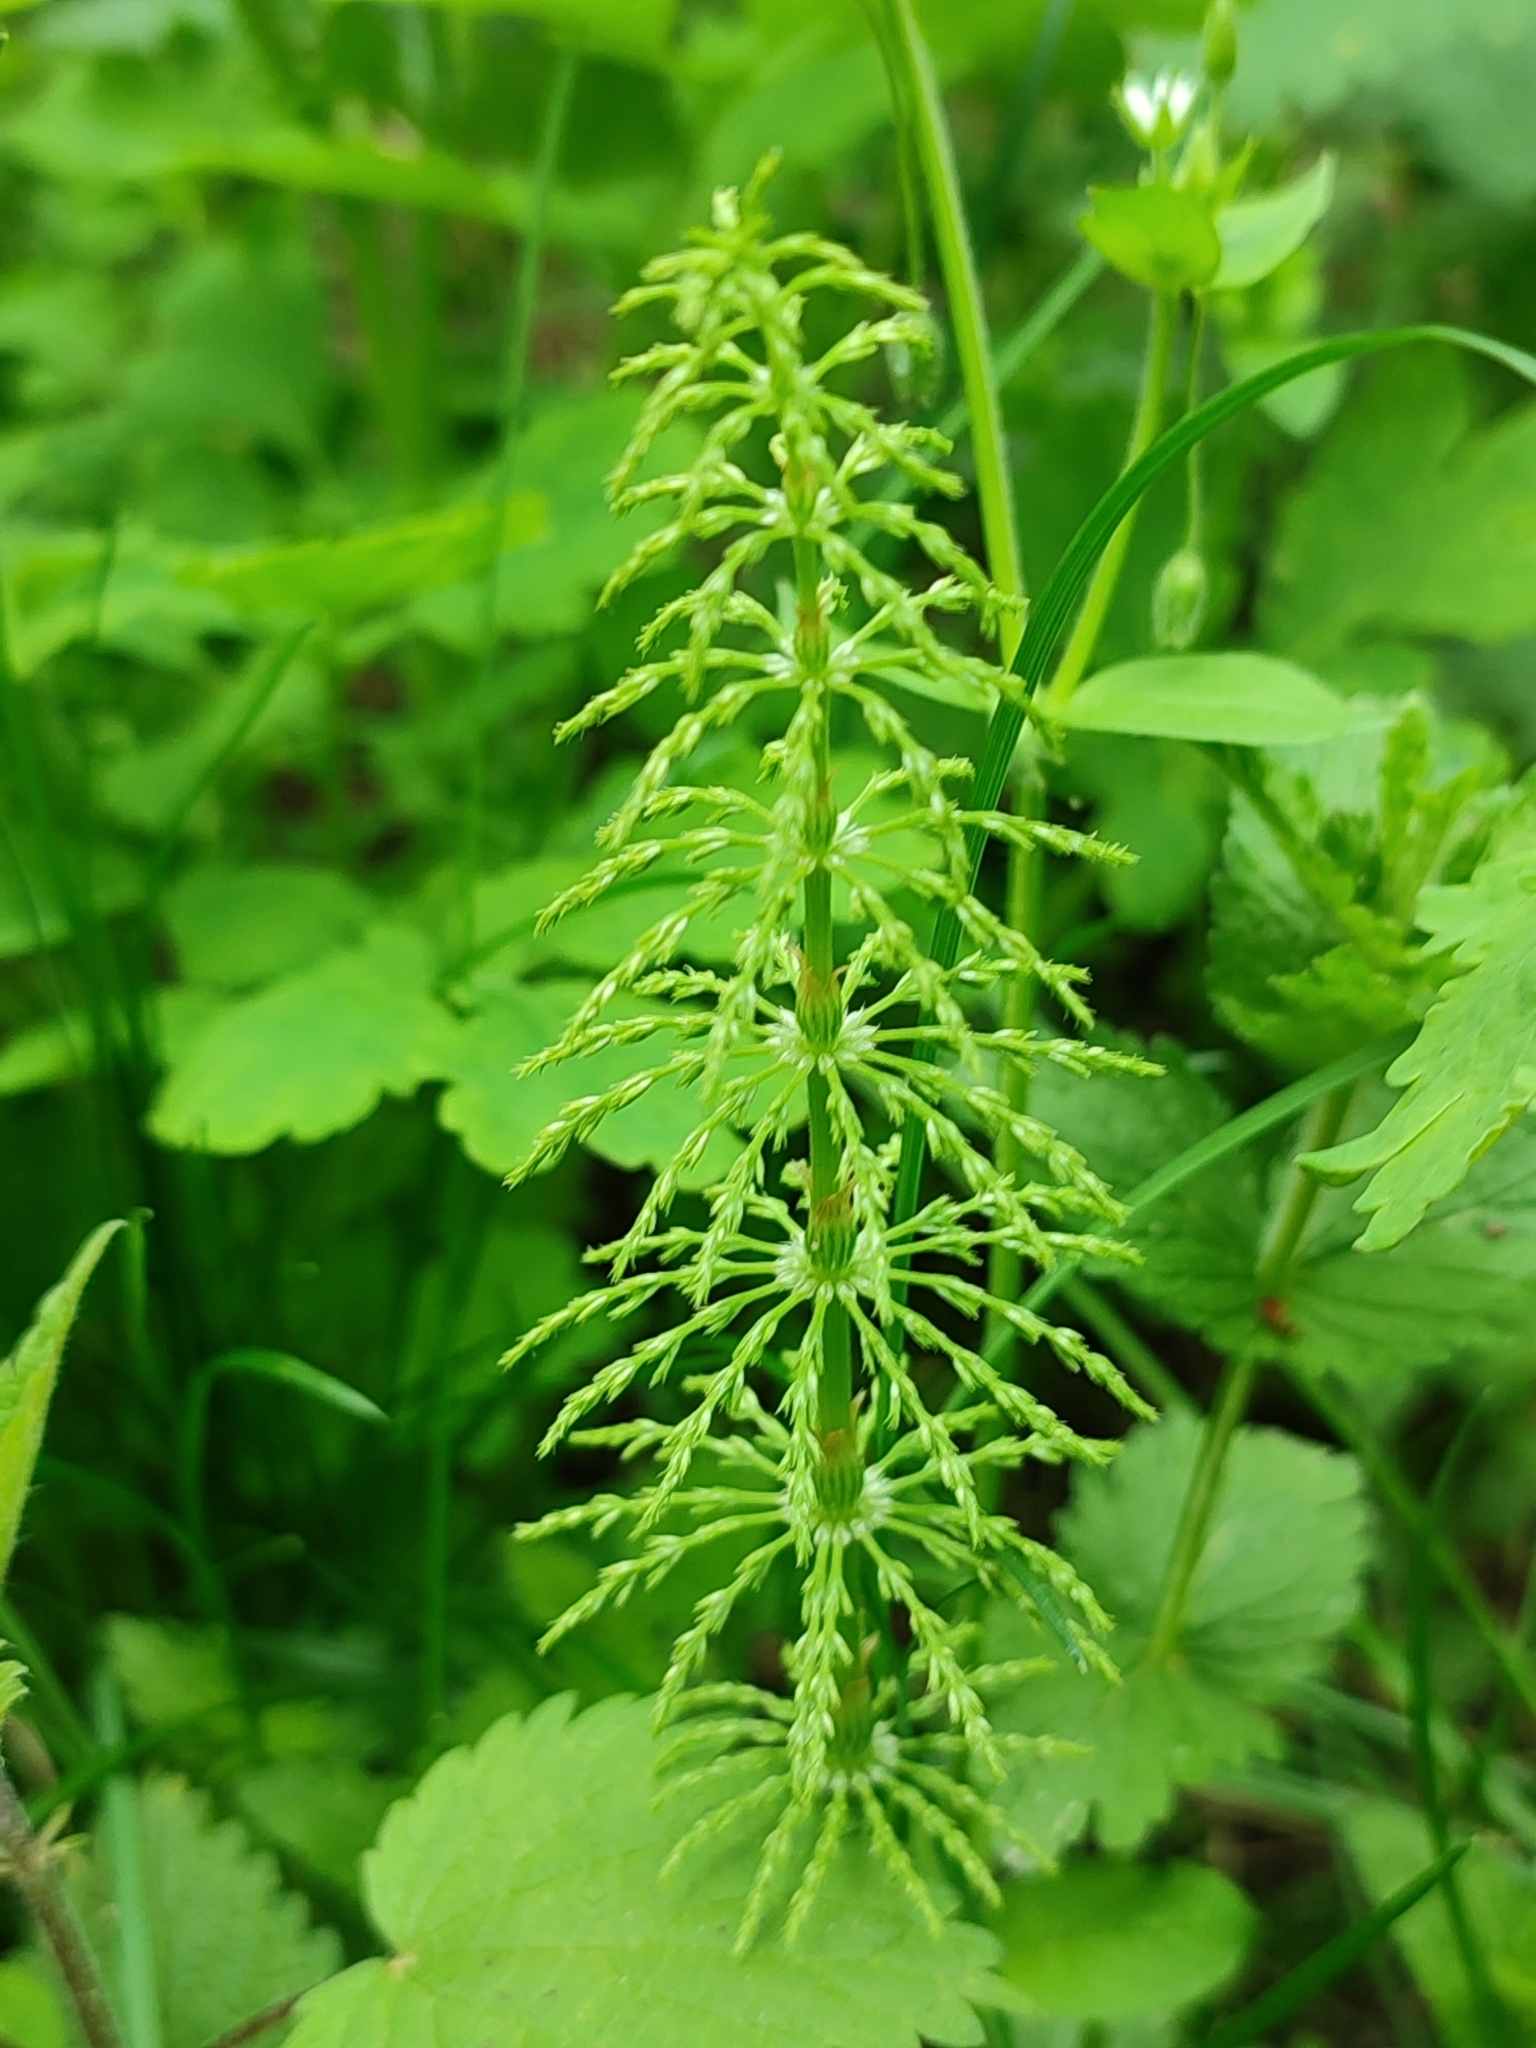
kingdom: Plantae
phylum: Tracheophyta
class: Polypodiopsida
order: Equisetales
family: Equisetaceae
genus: Equisetum
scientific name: Equisetum sylvaticum
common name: Wood horsetail
